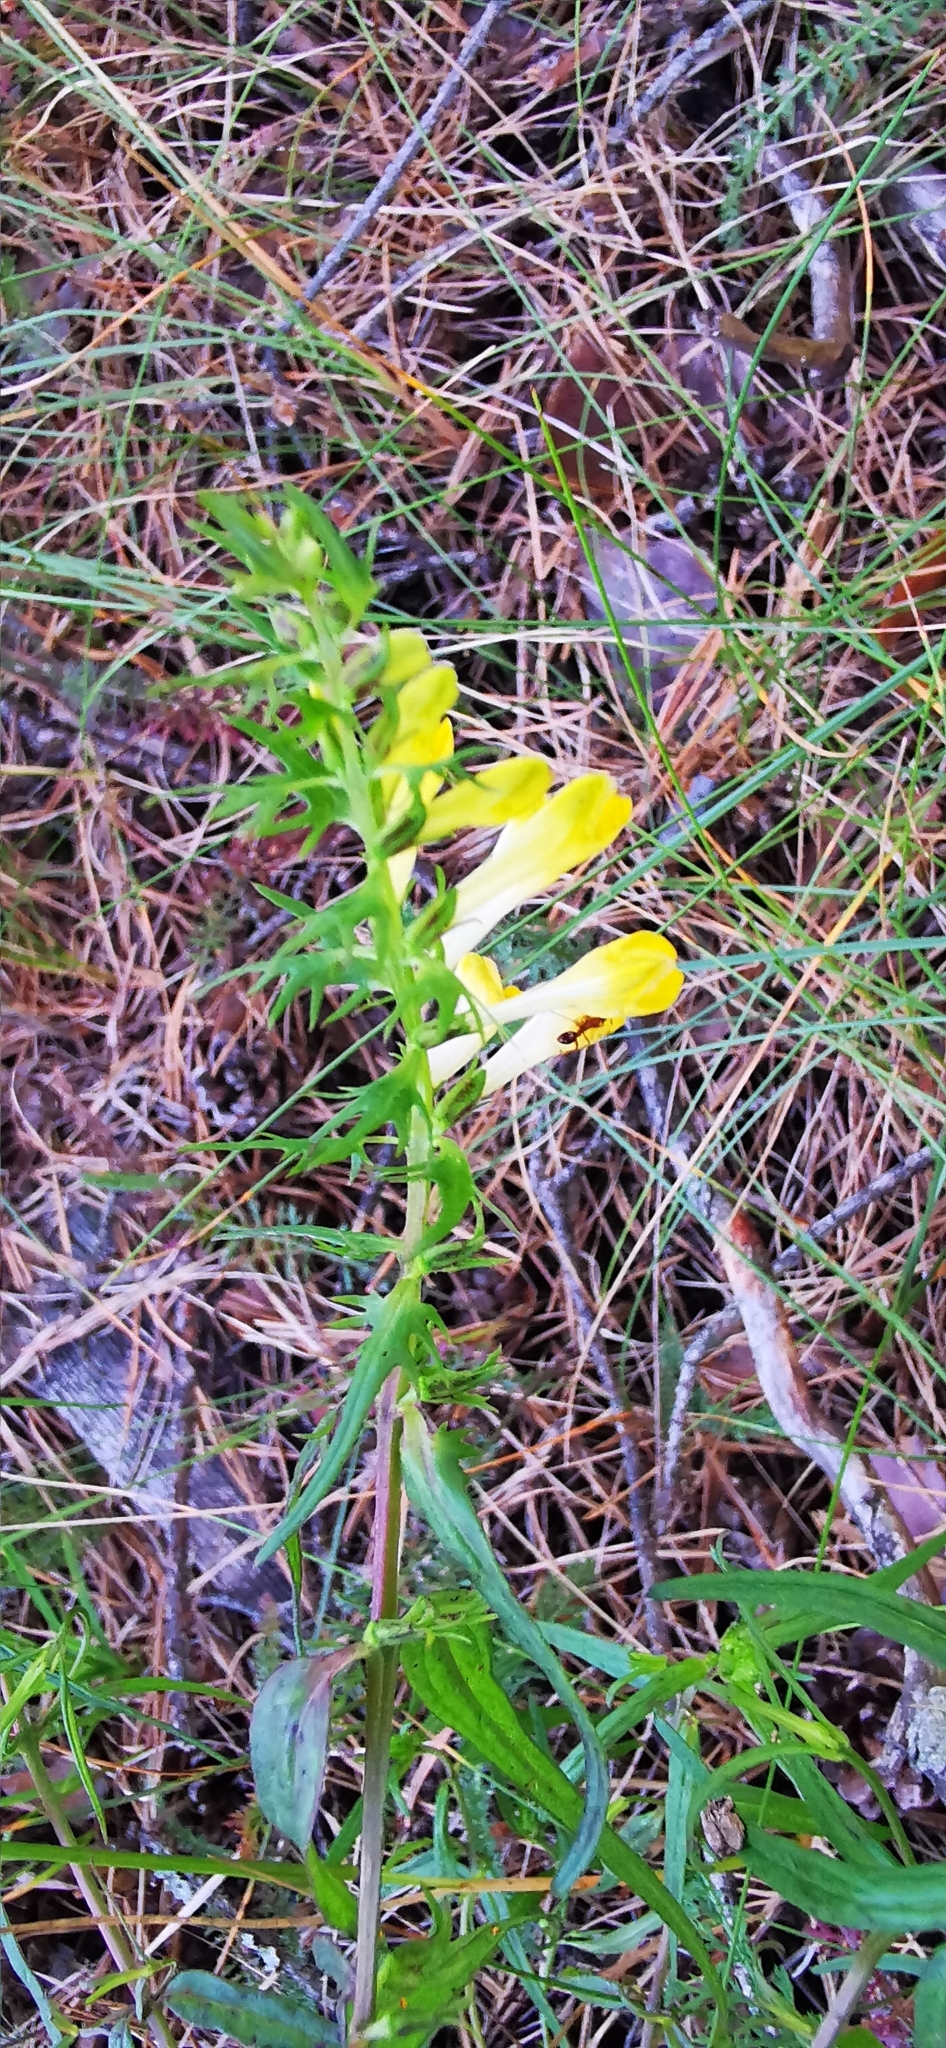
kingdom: Plantae
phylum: Tracheophyta
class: Magnoliopsida
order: Lamiales
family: Orobanchaceae
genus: Melampyrum
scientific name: Melampyrum pratense
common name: Common cow-wheat
